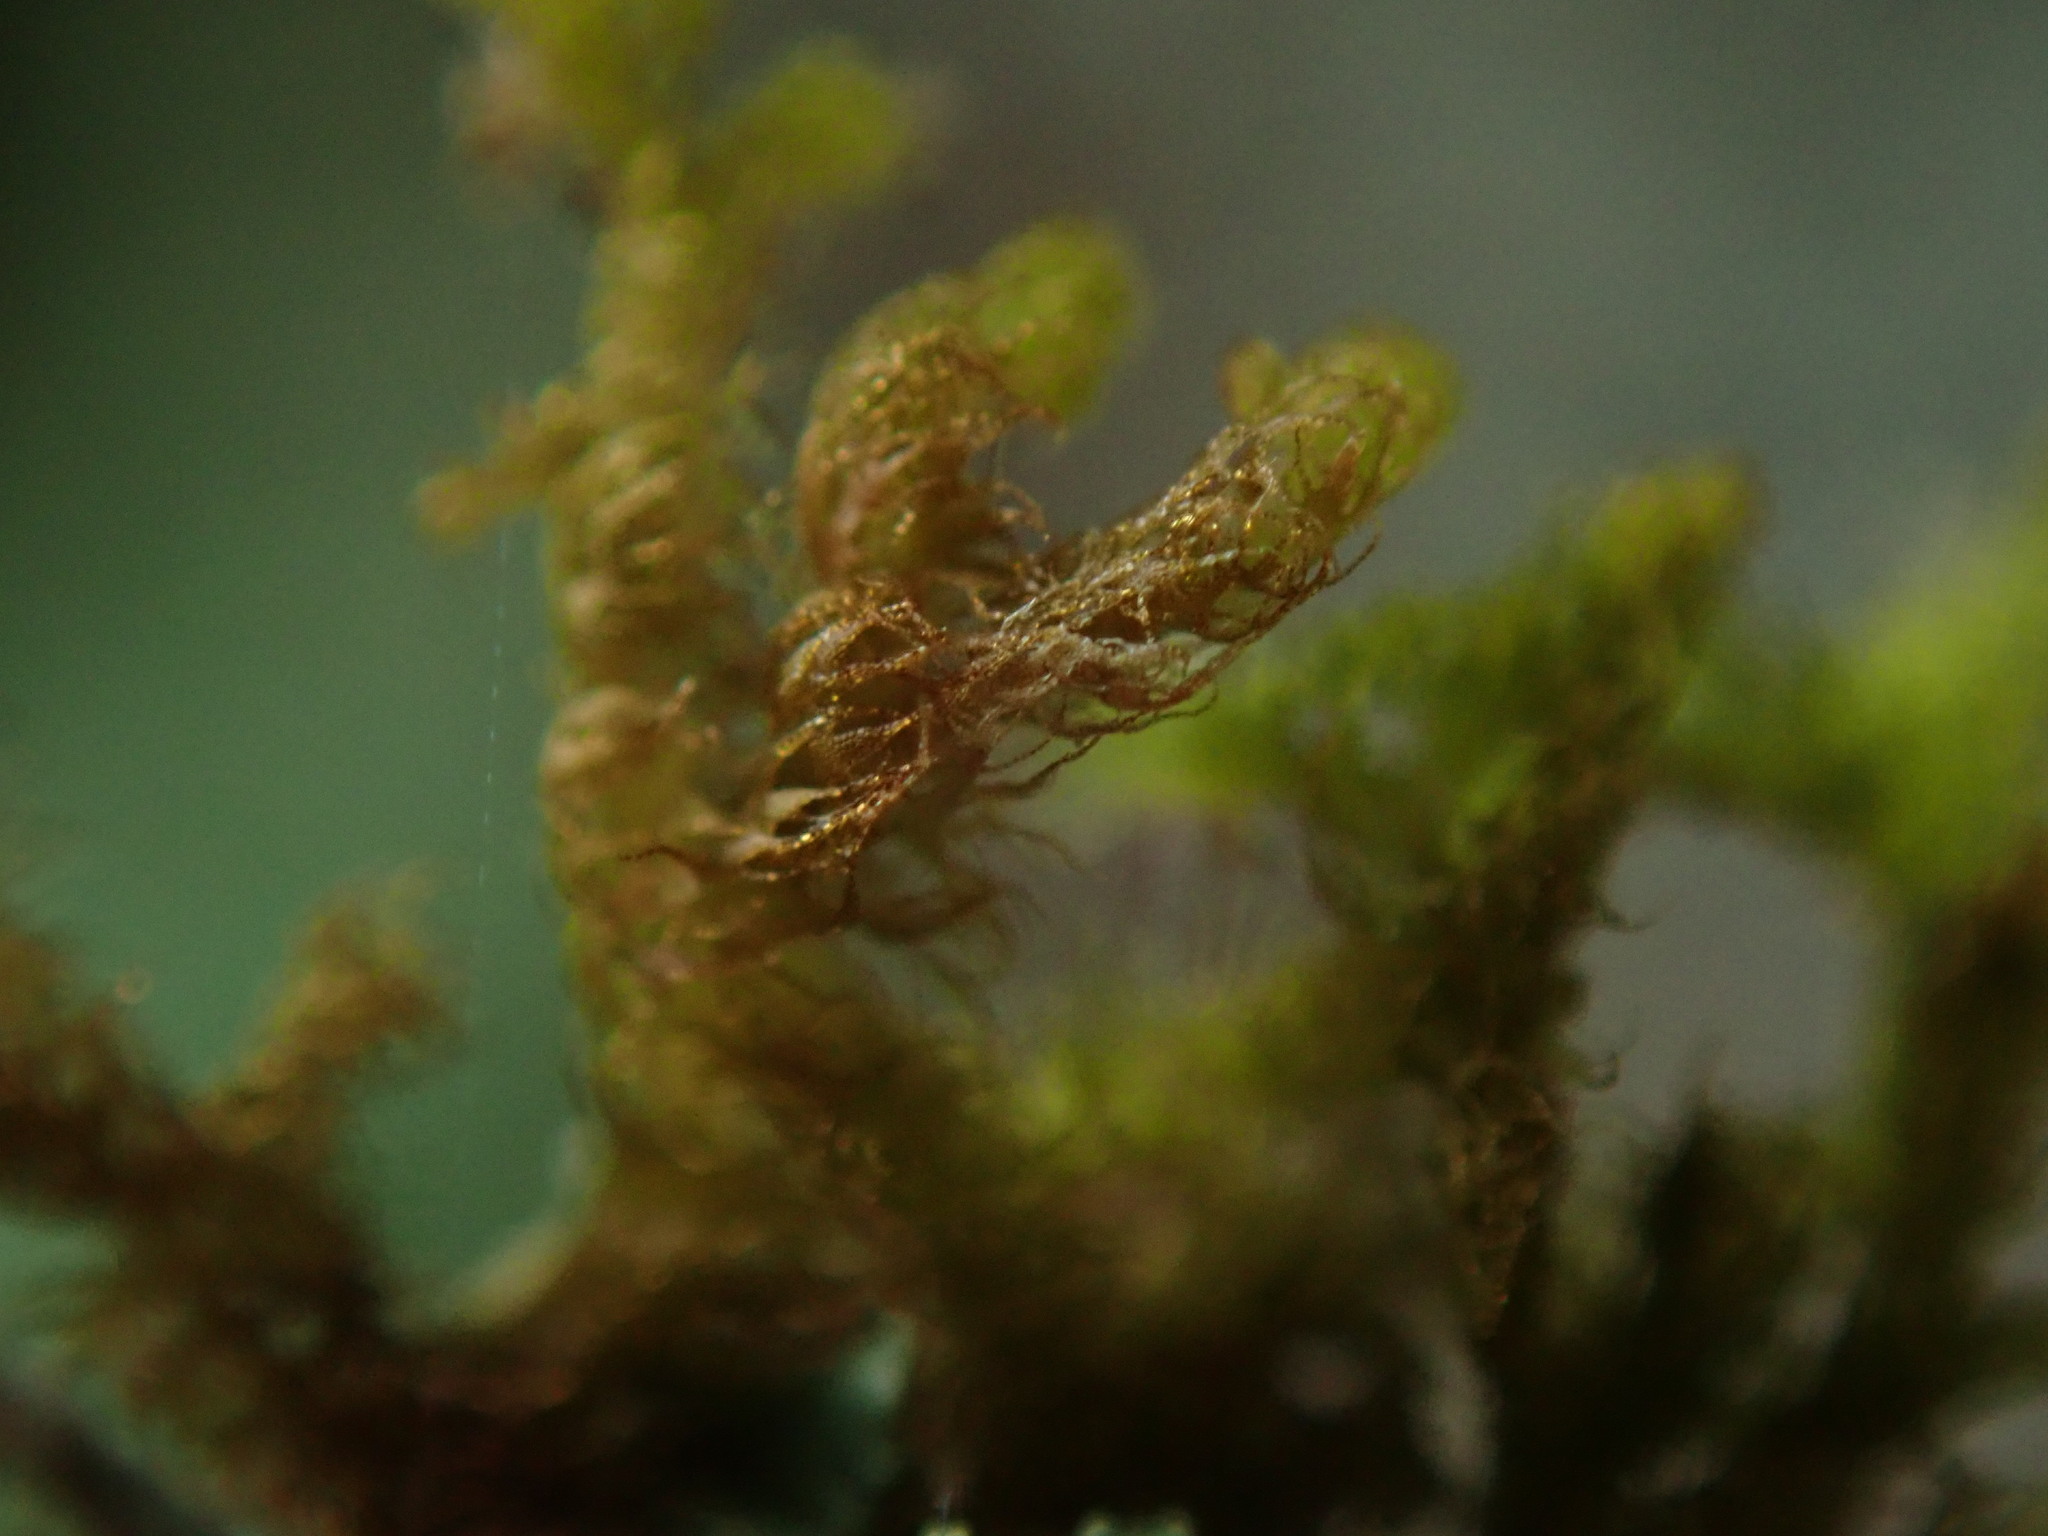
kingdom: Plantae
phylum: Marchantiophyta
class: Jungermanniopsida
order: Ptilidiales
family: Ptilidiaceae
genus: Ptilidium
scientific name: Ptilidium californicum
